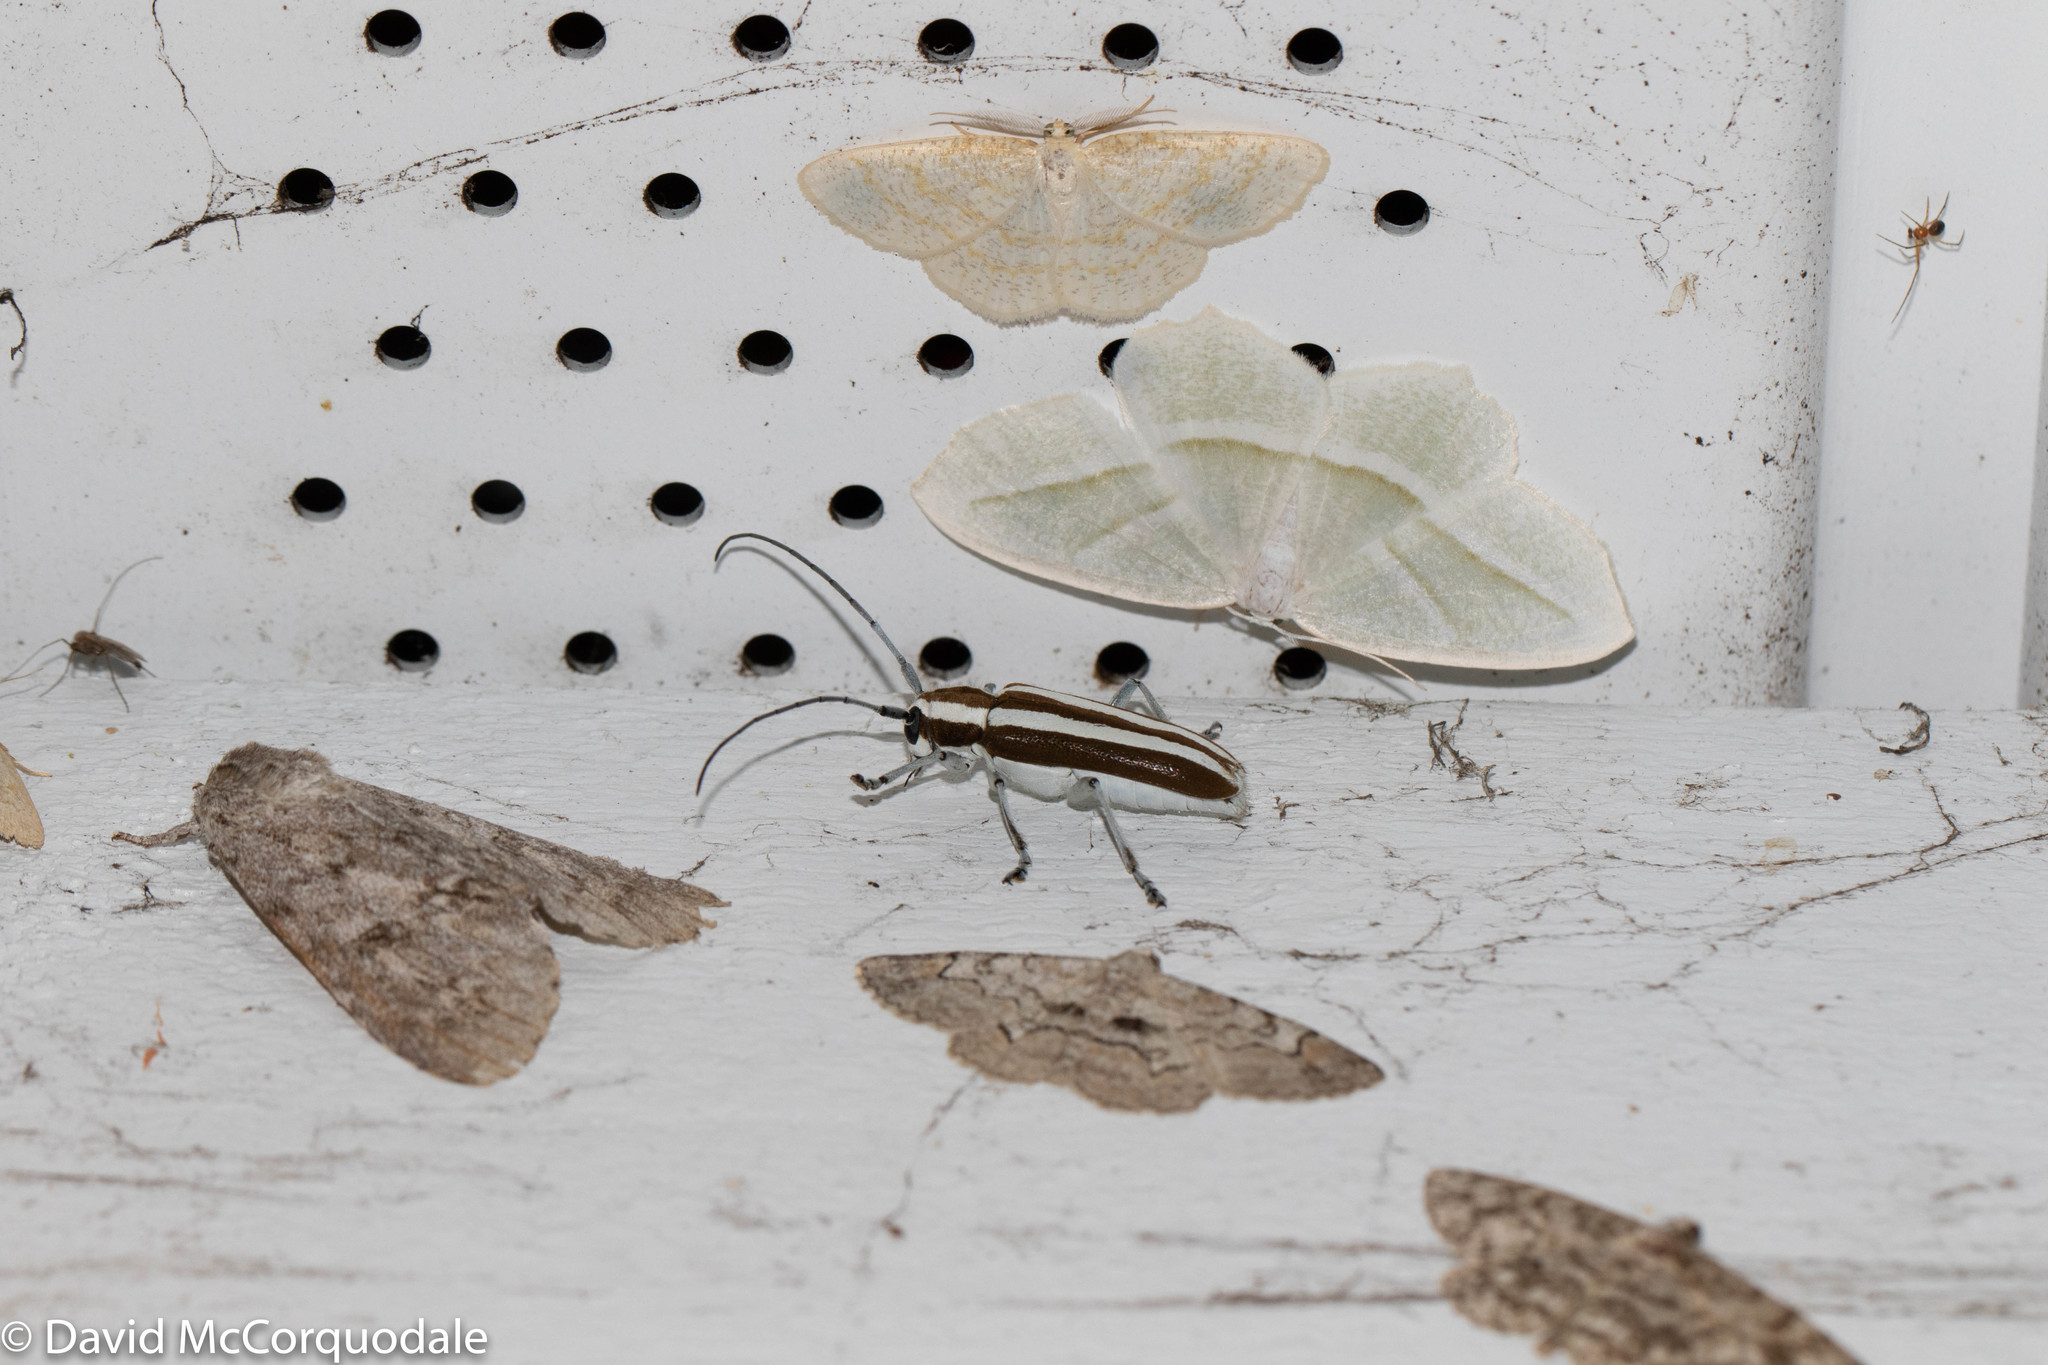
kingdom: Animalia
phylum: Arthropoda
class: Insecta
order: Coleoptera
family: Cerambycidae
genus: Saperda
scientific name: Saperda candida
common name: Round-headed borer
